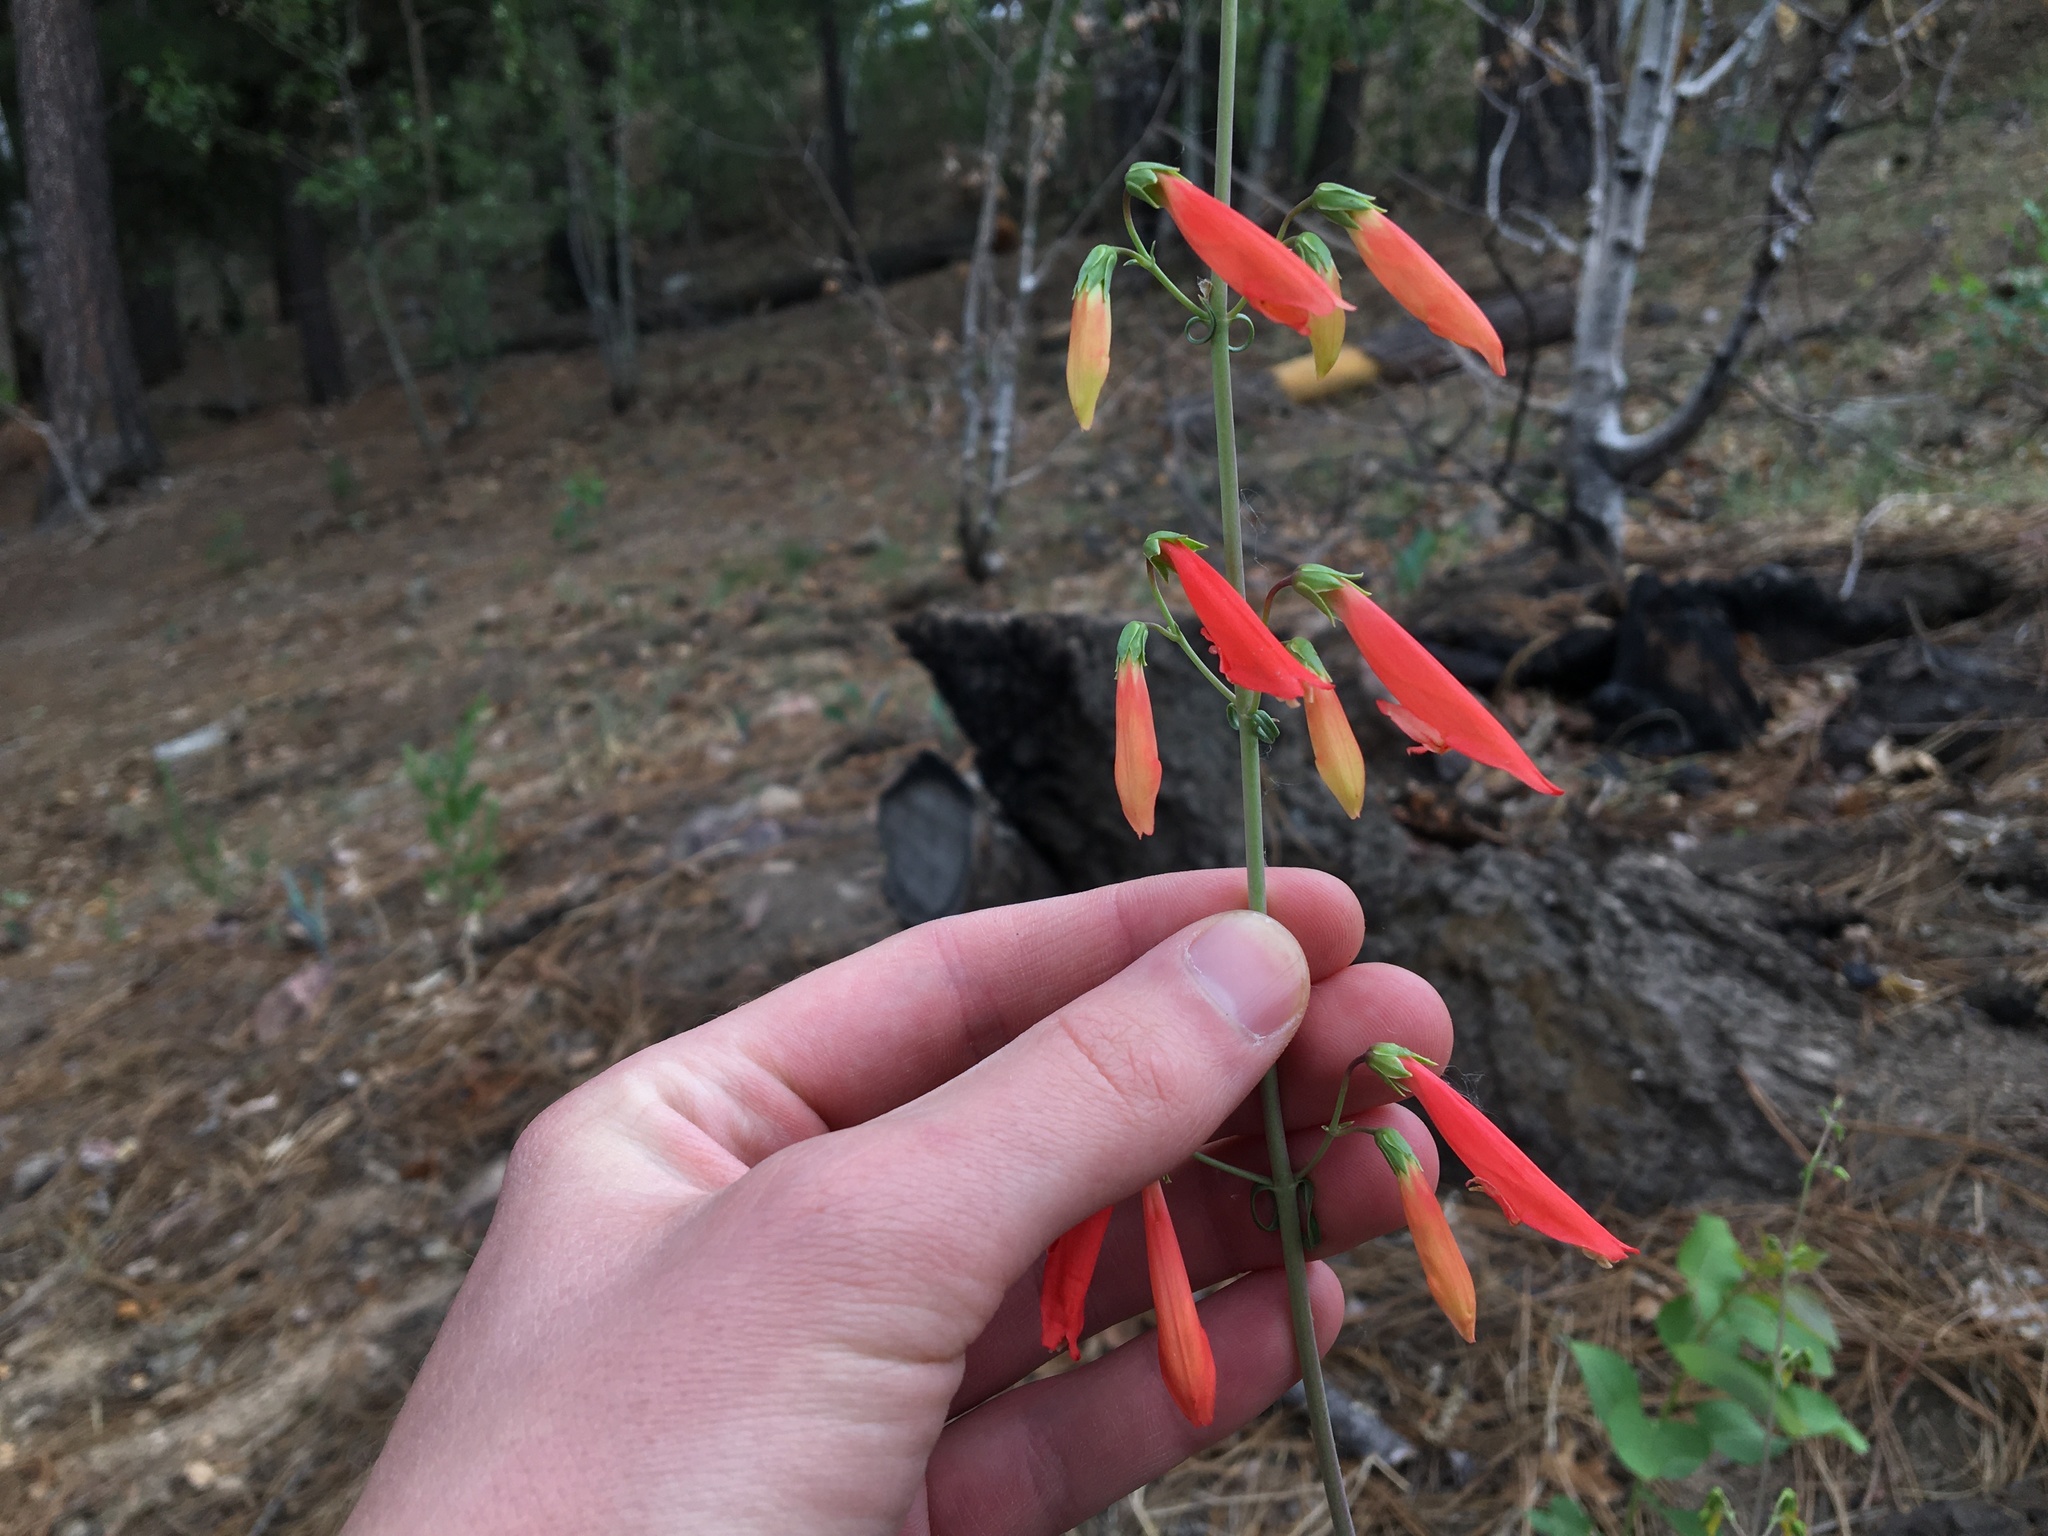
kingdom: Plantae
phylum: Tracheophyta
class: Magnoliopsida
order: Lamiales
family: Plantaginaceae
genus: Penstemon
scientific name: Penstemon barbatus
